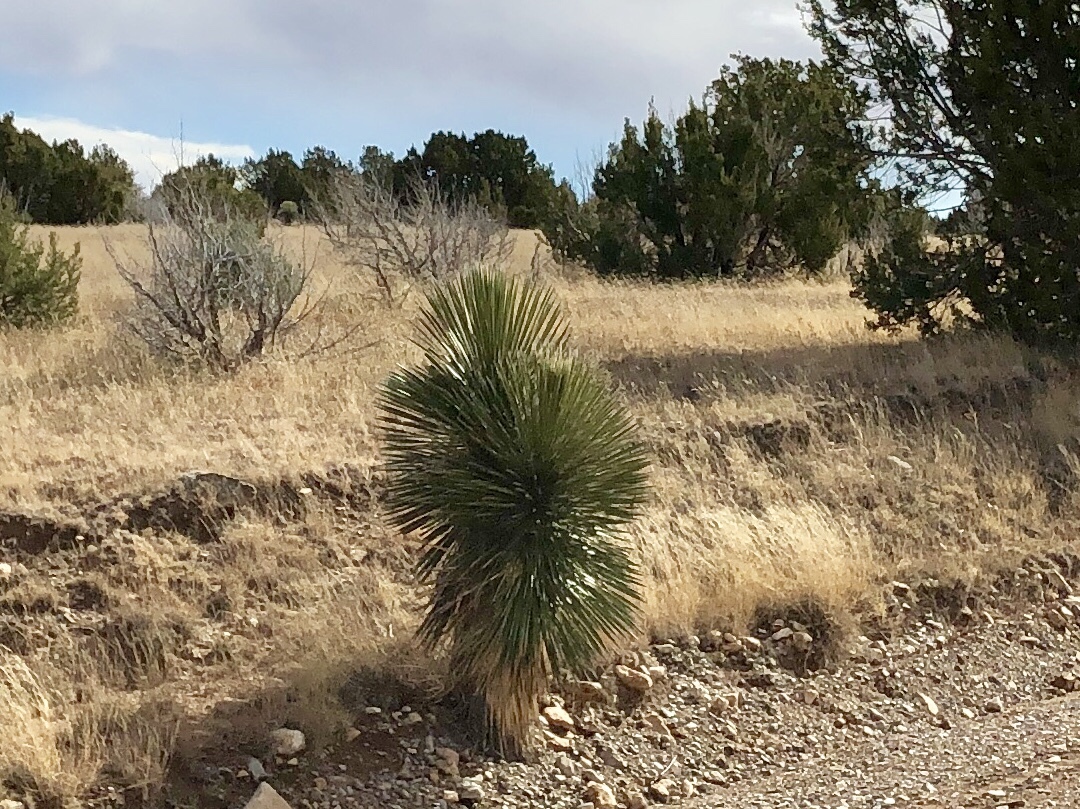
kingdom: Plantae
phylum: Tracheophyta
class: Liliopsida
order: Asparagales
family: Asparagaceae
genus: Yucca
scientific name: Yucca elata
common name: Palmella
